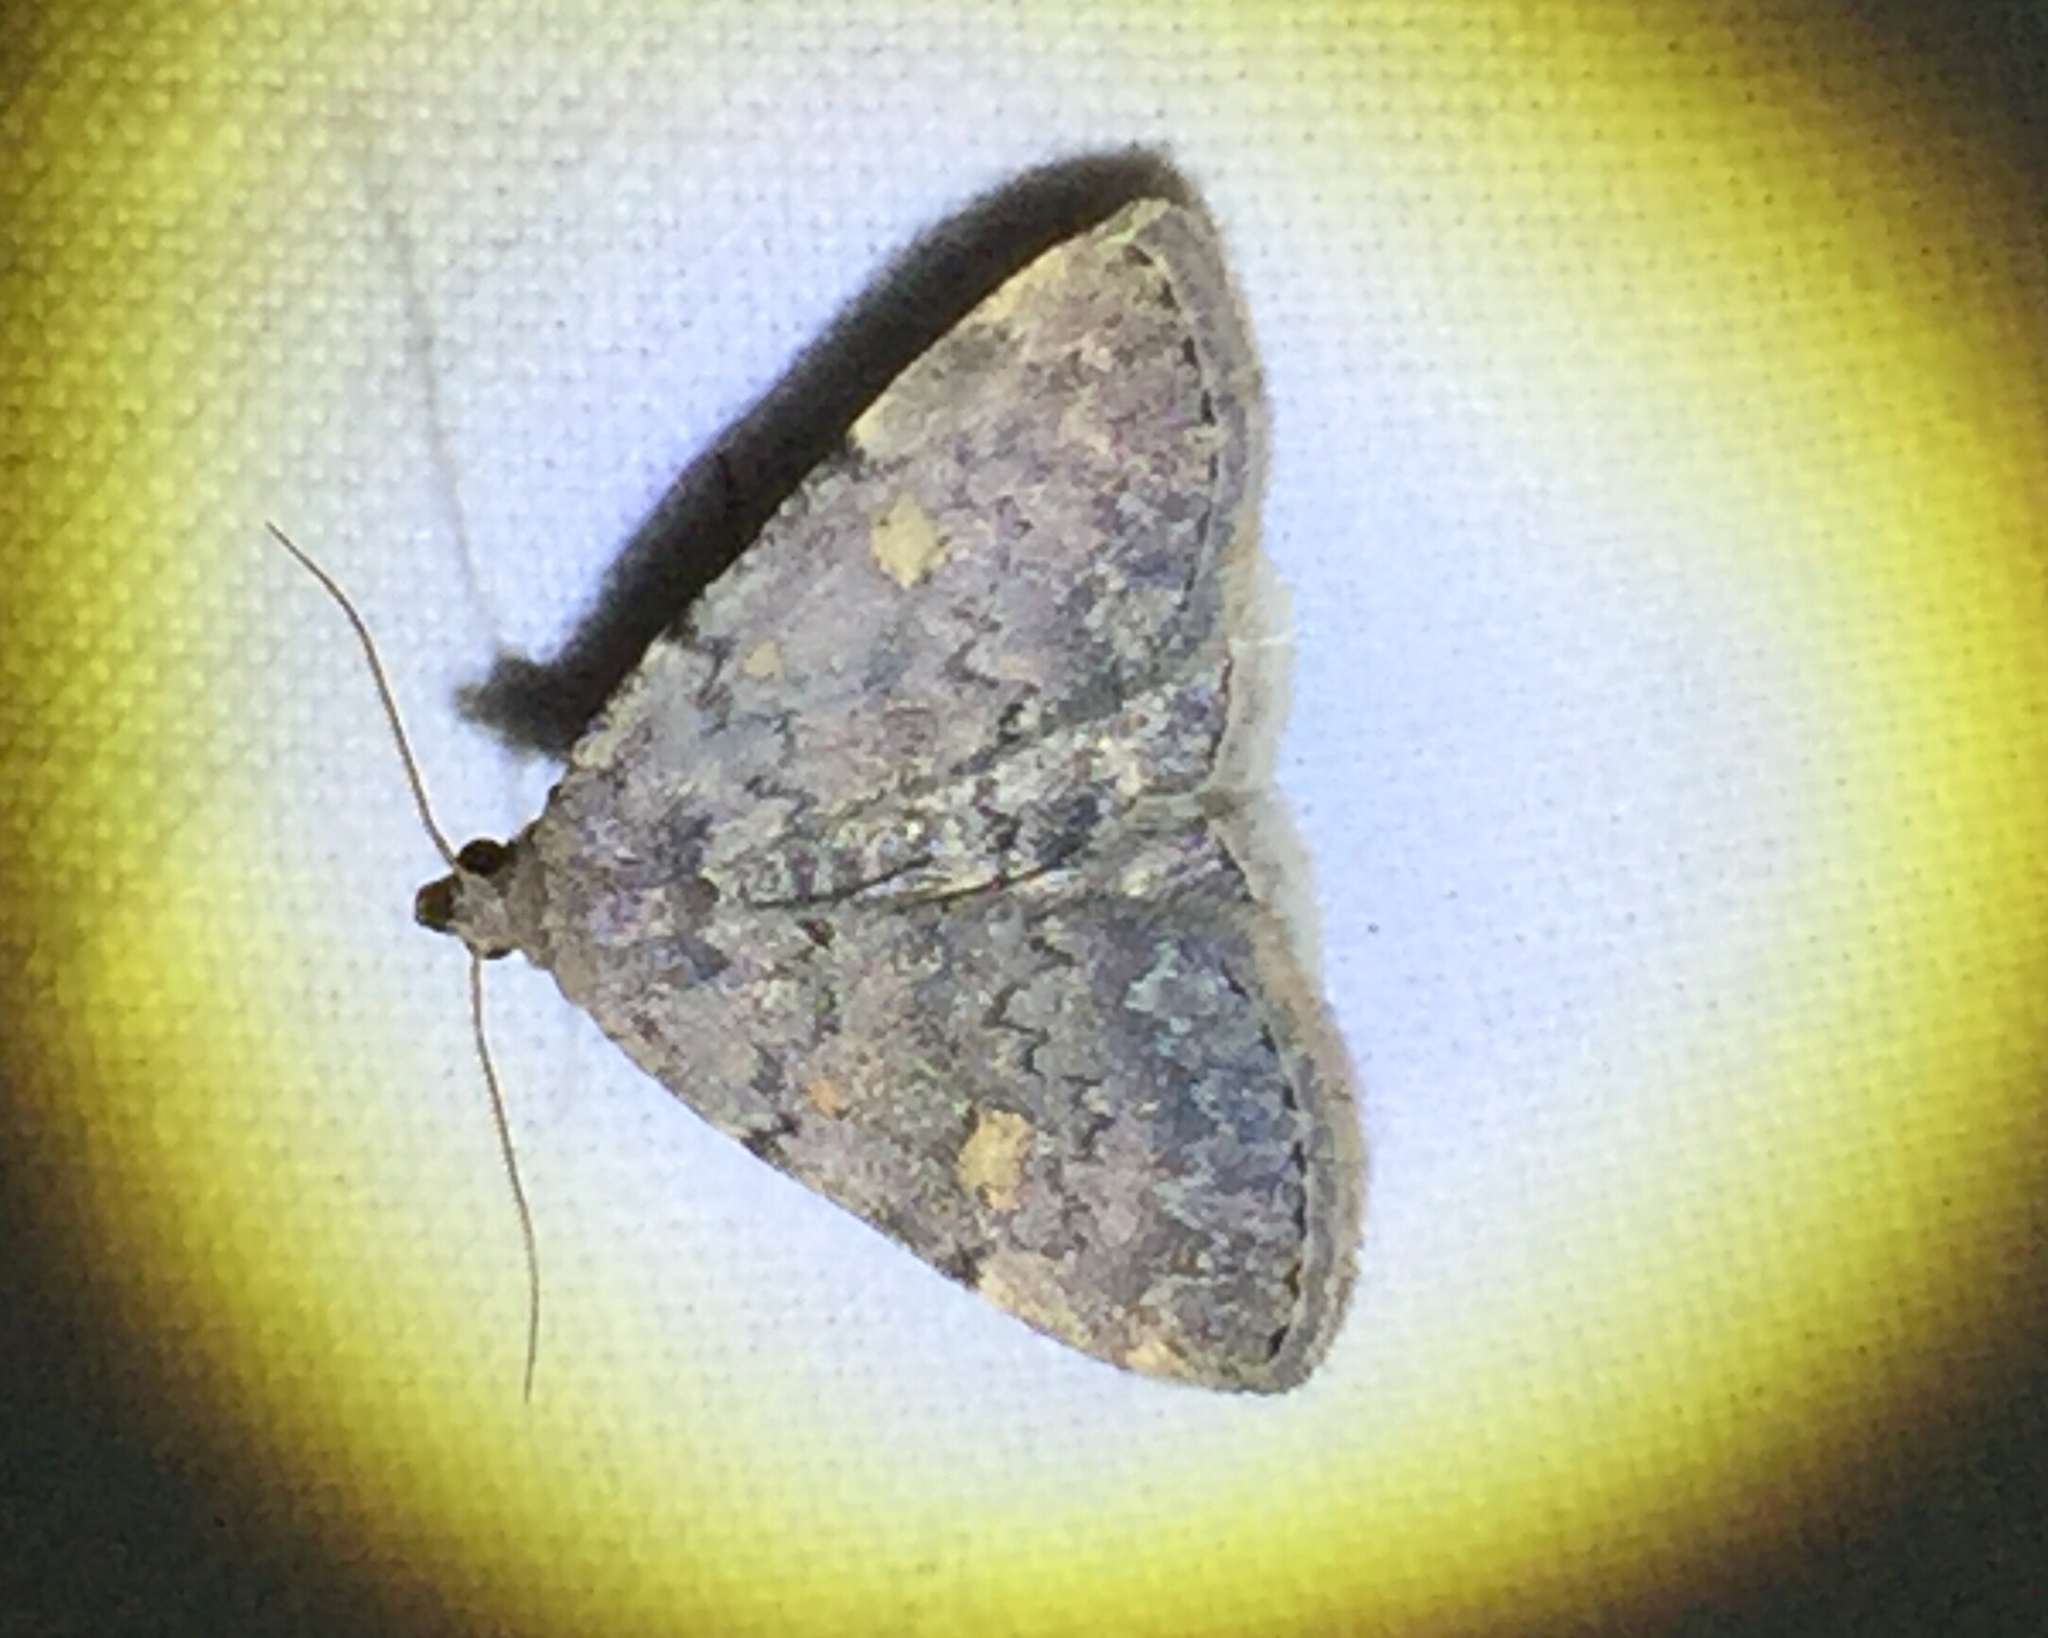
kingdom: Animalia
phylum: Arthropoda
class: Insecta
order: Lepidoptera
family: Erebidae
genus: Idia
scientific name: Idia aemula
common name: Common idia moth
